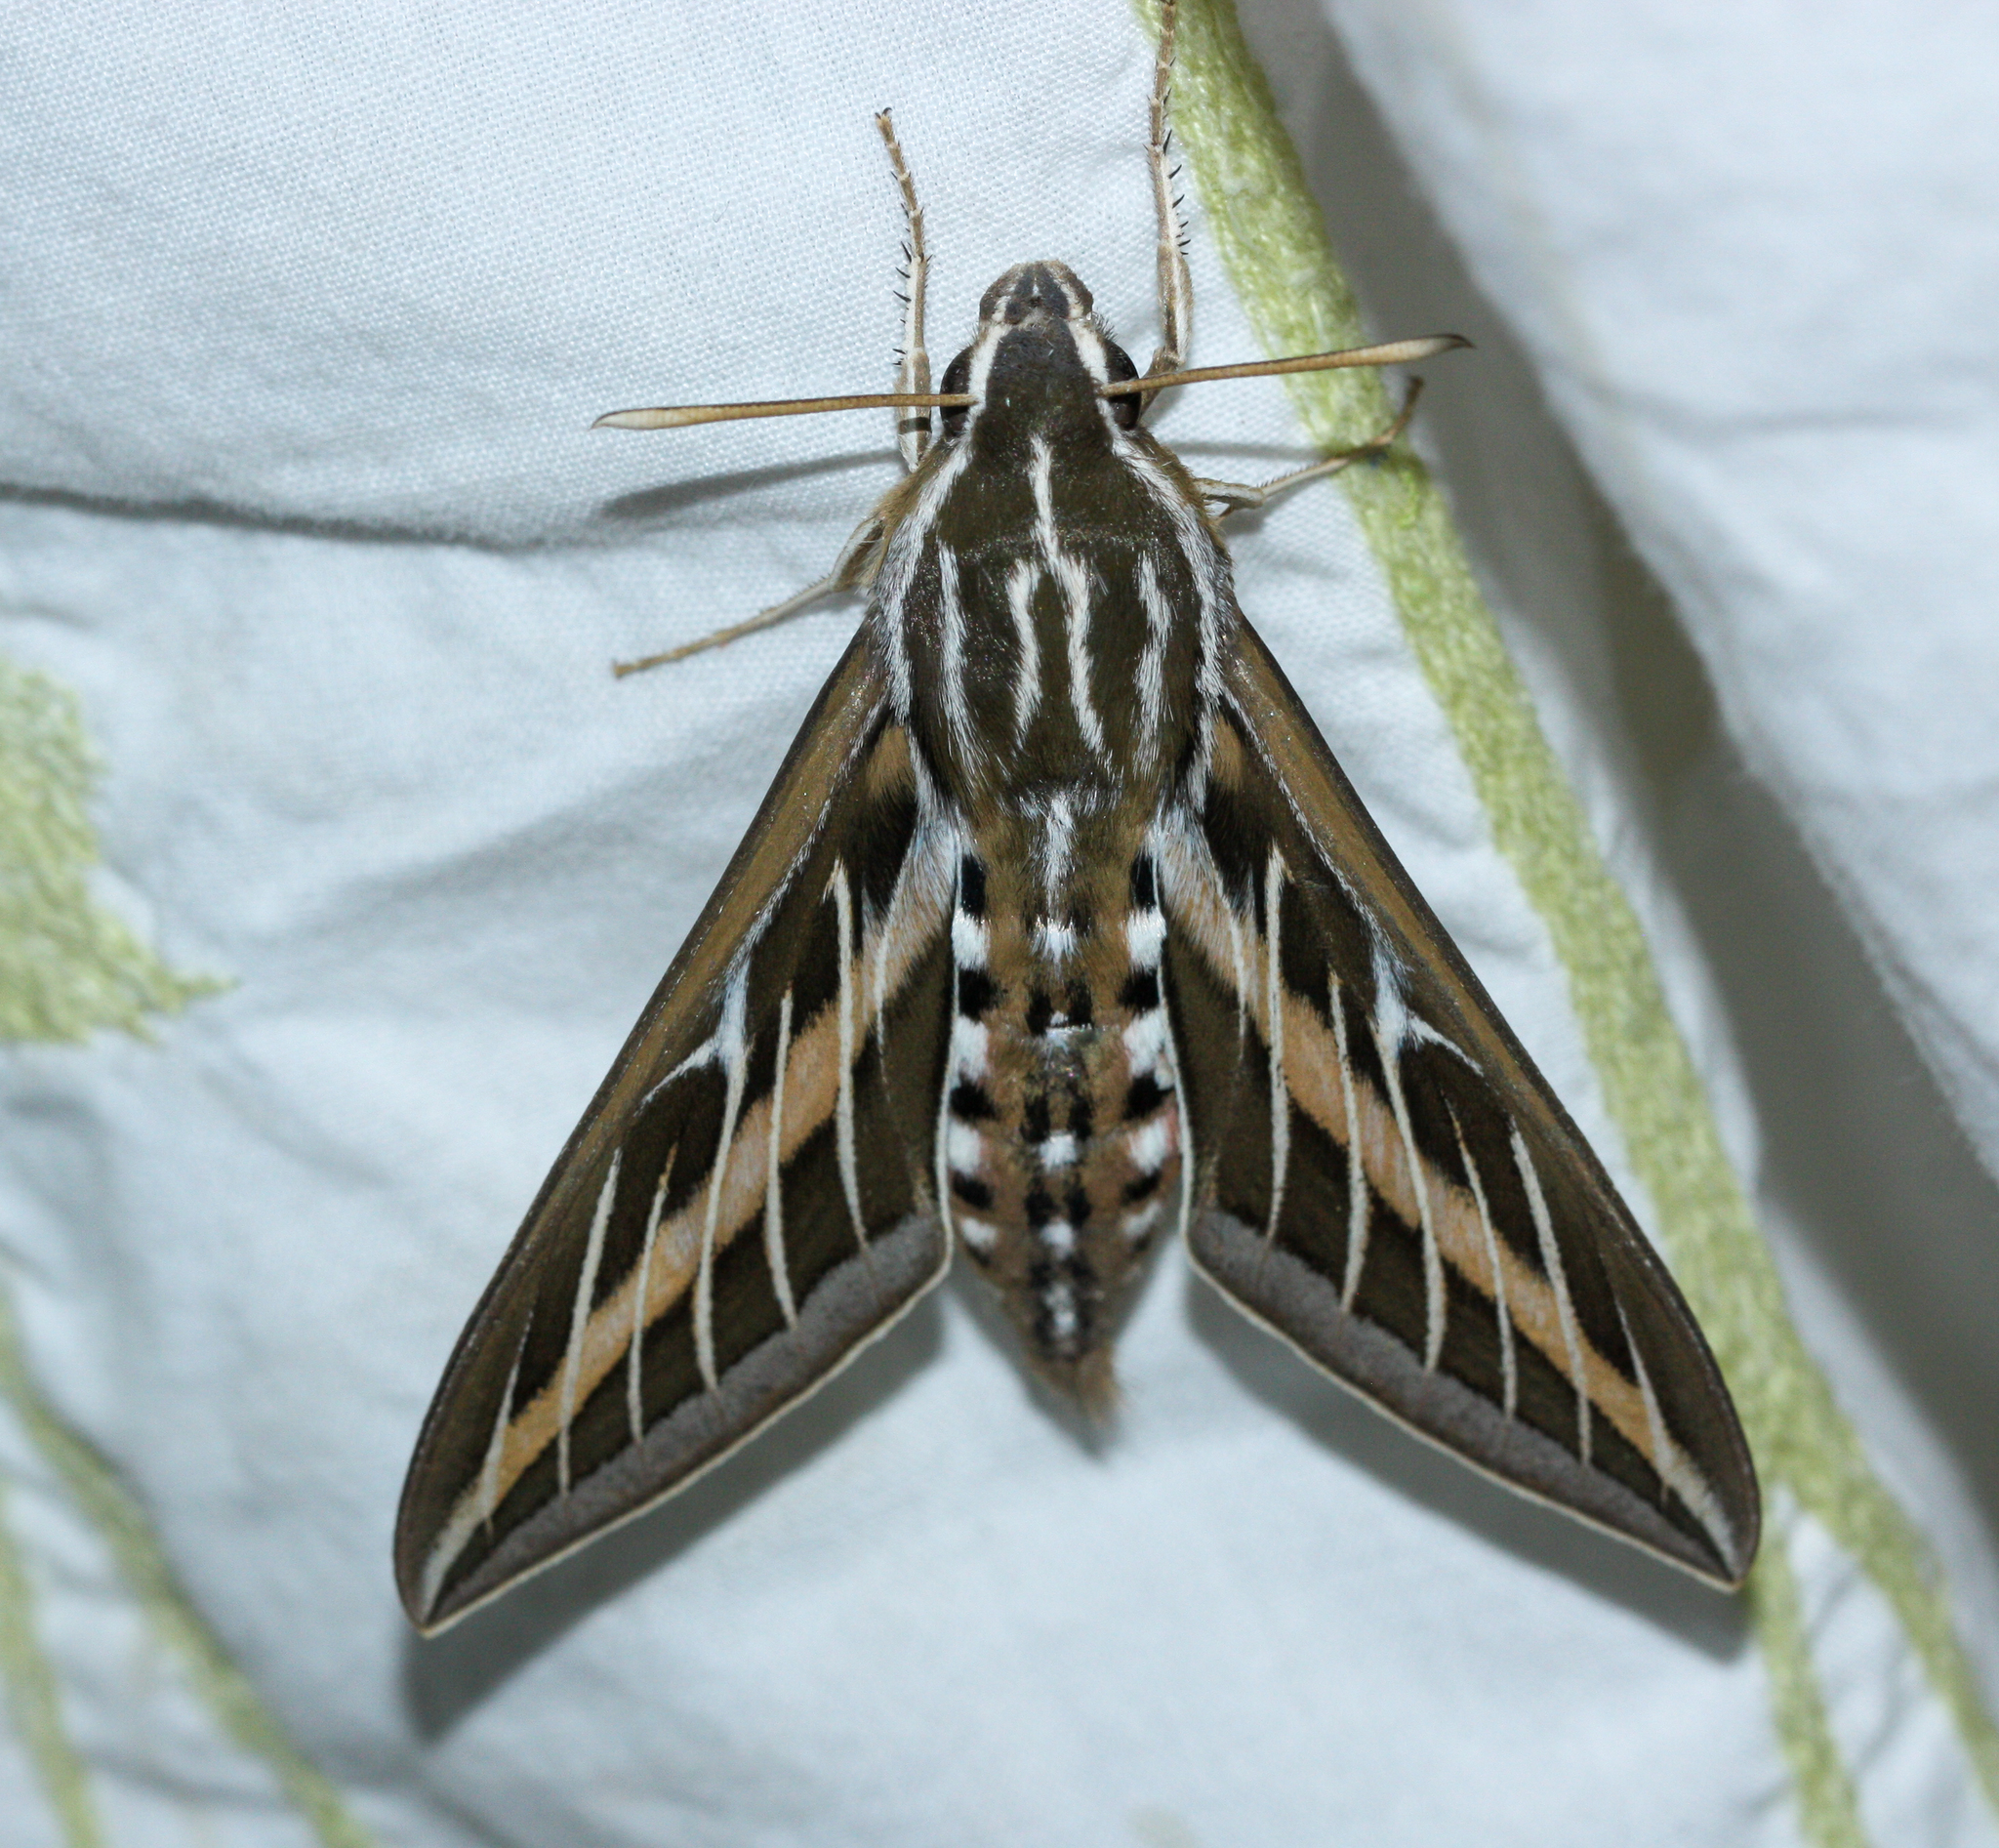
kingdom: Animalia
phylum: Arthropoda
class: Insecta
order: Lepidoptera
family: Sphingidae
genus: Hyles
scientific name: Hyles lineata
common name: White-lined sphinx
